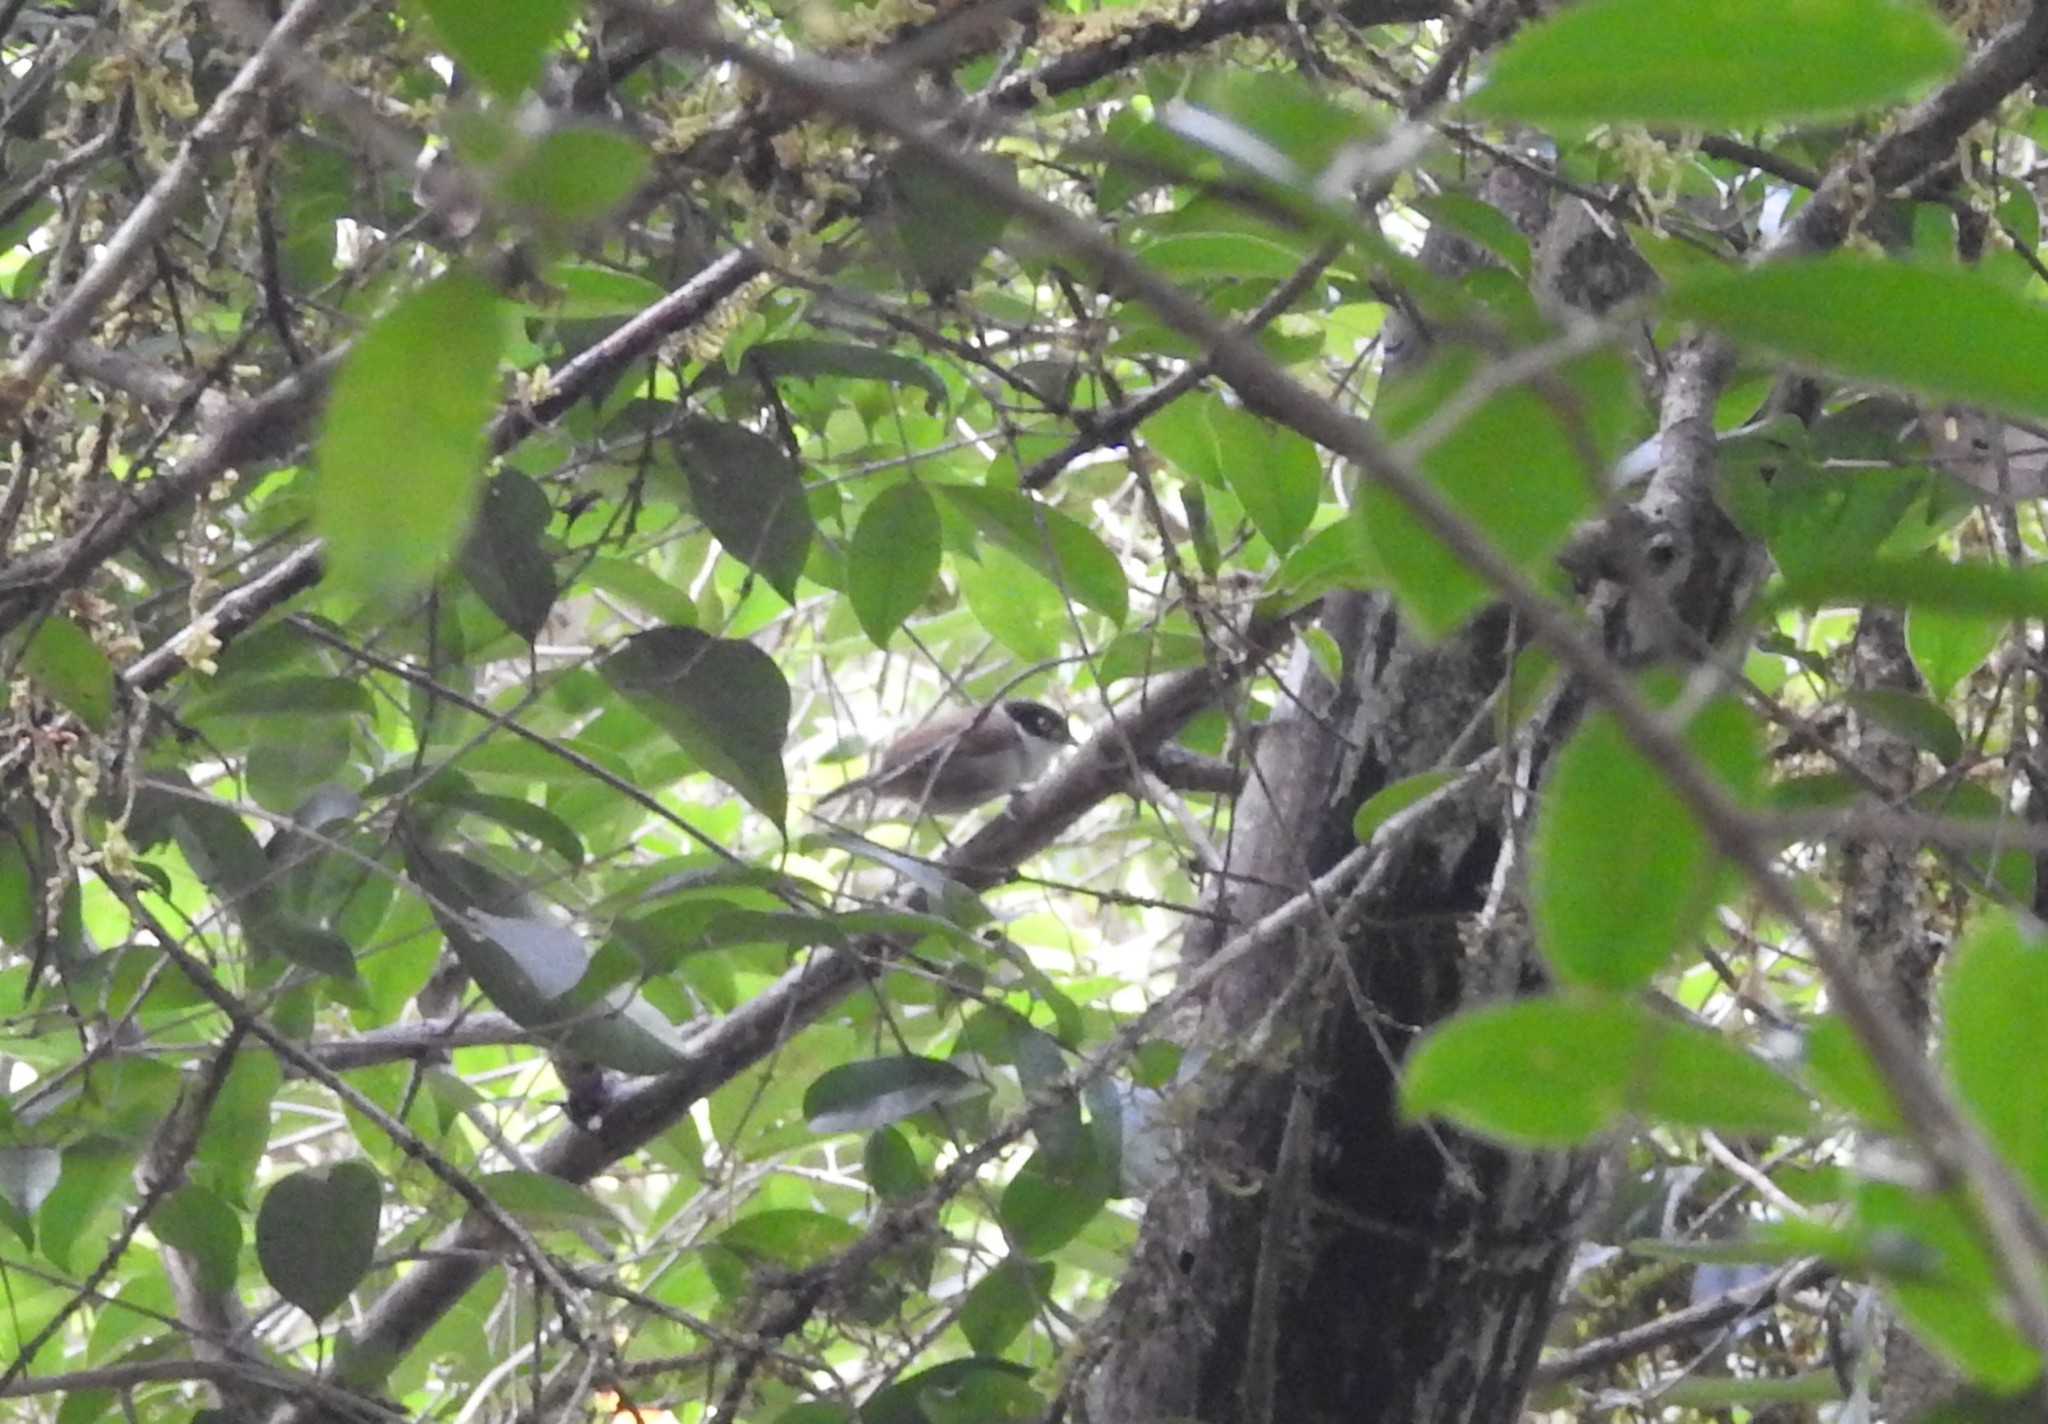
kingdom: Animalia
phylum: Chordata
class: Aves
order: Passeriformes
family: Timaliidae
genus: Rhopocichla
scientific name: Rhopocichla atriceps
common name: Dark-fronted babbler
